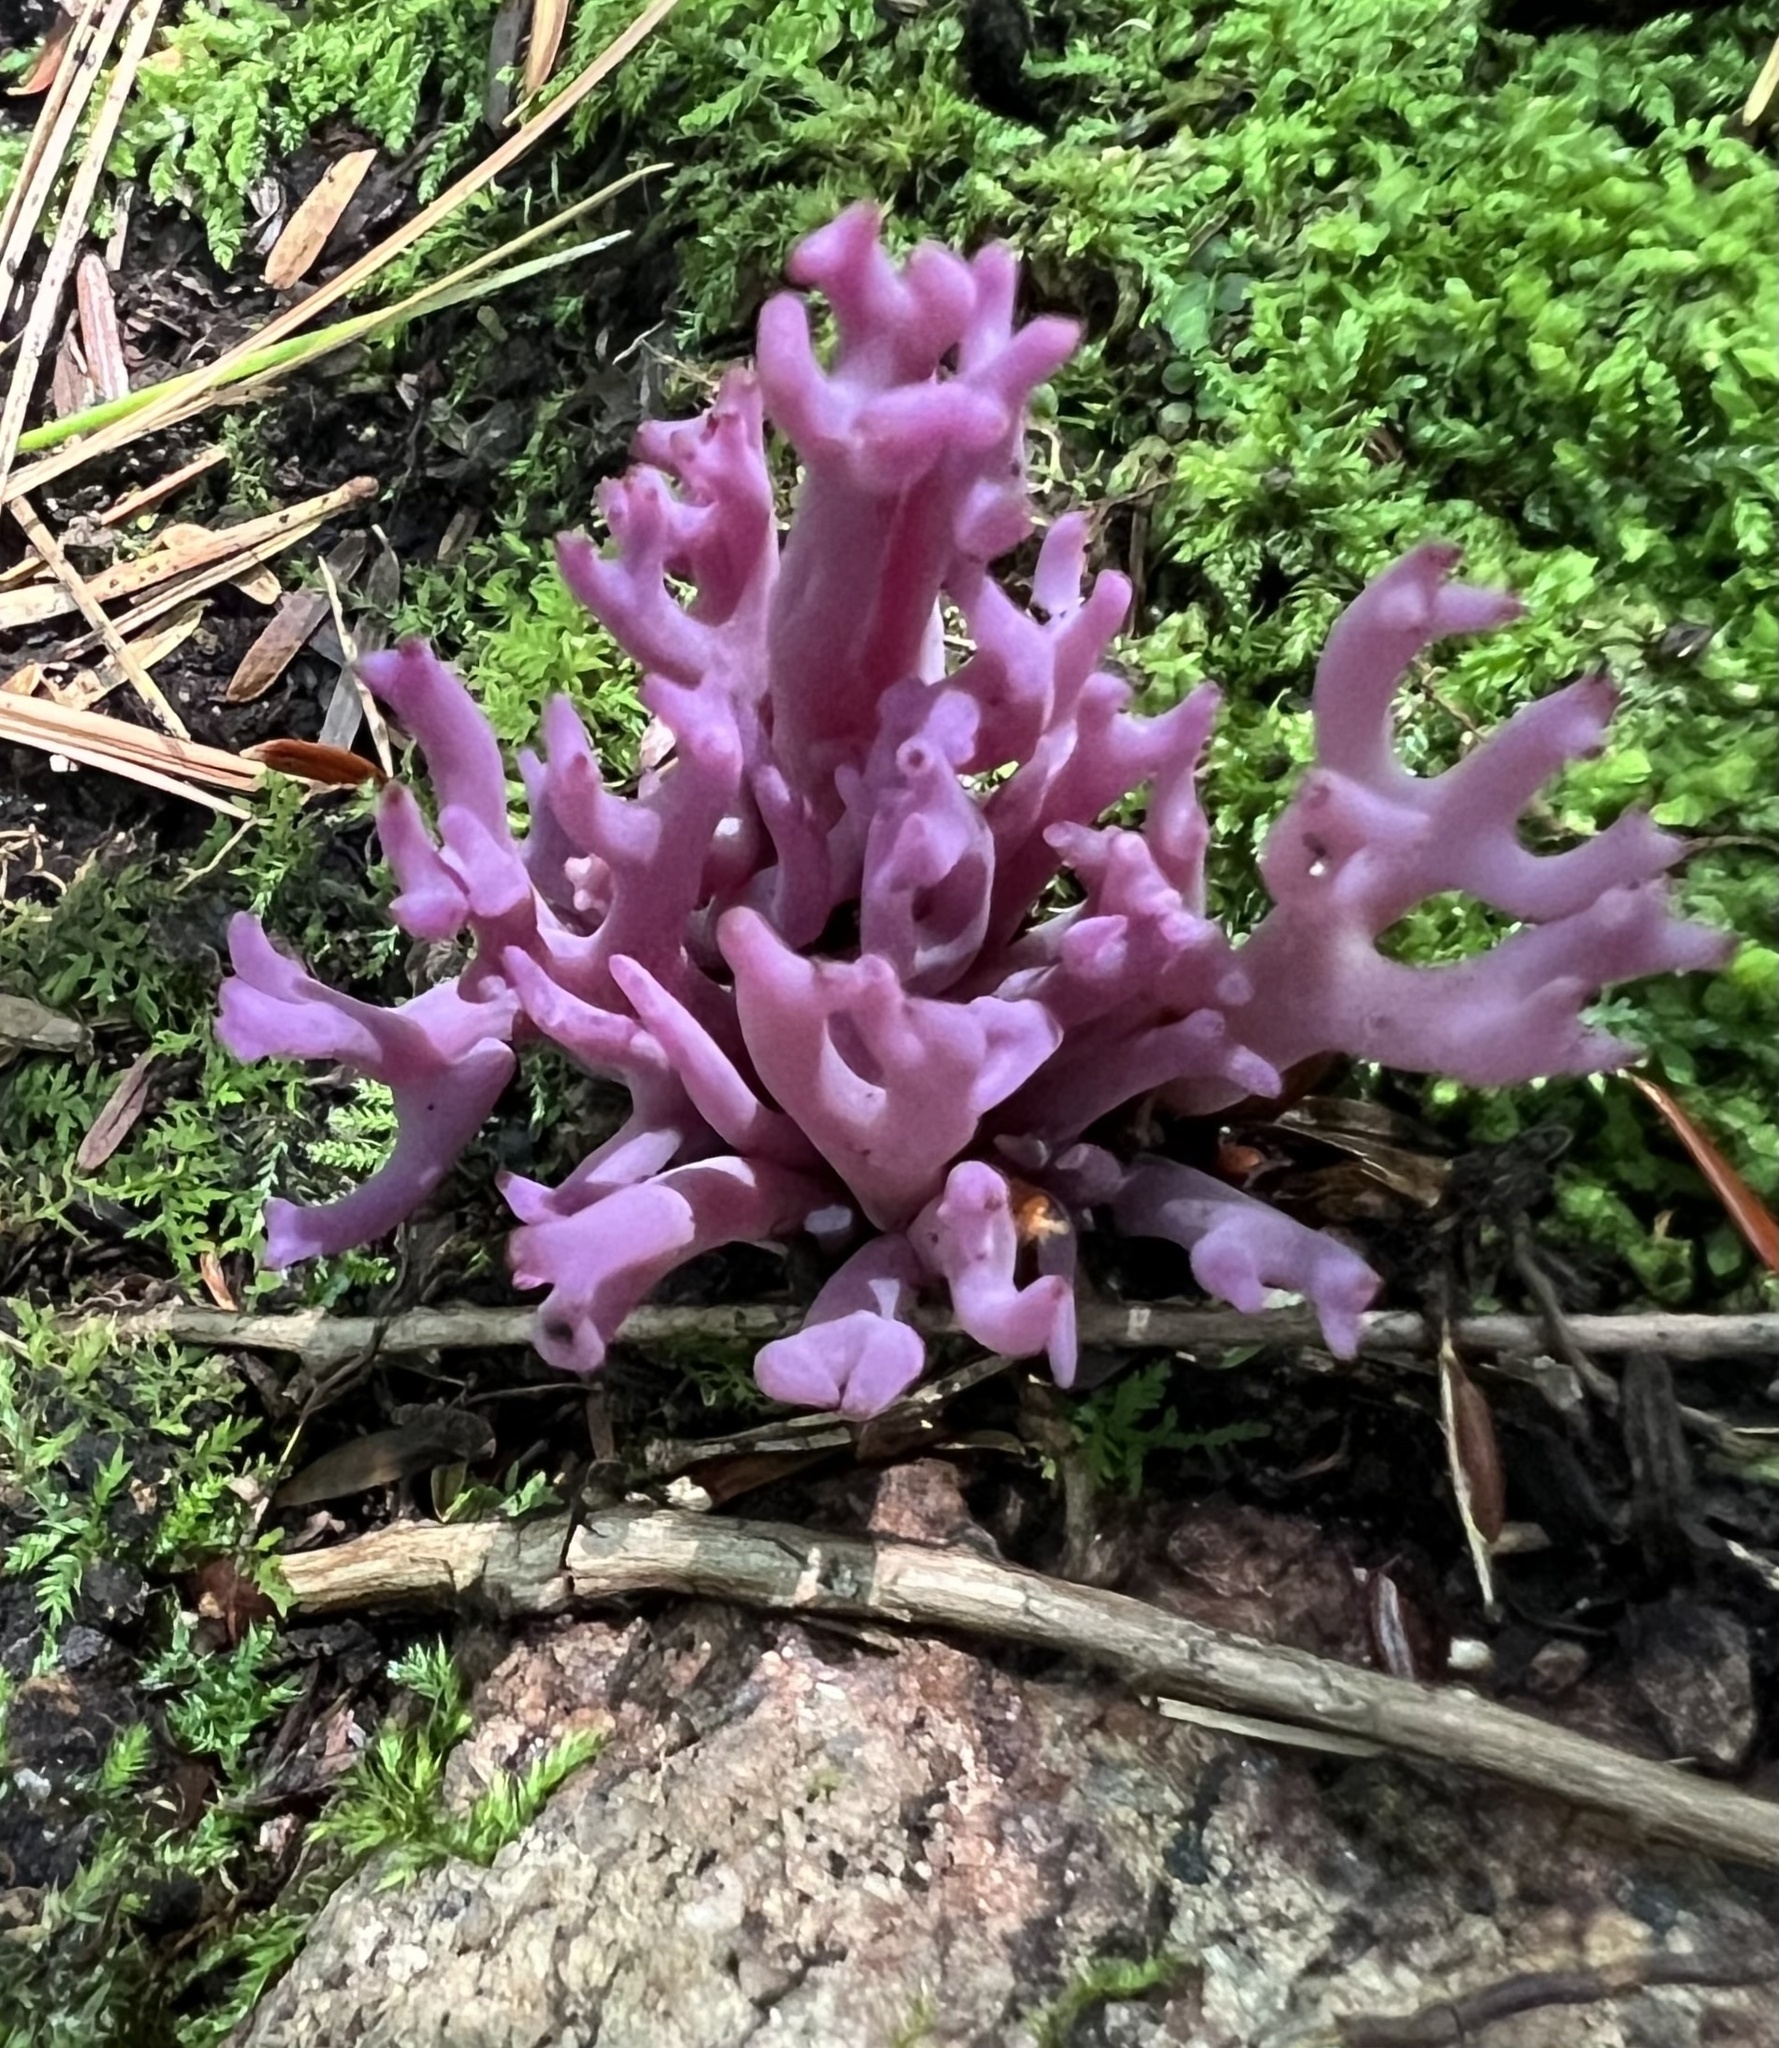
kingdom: Fungi
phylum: Basidiomycota
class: Agaricomycetes
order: Agaricales
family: Clavariaceae
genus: Clavaria
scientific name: Clavaria zollingeri
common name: Violet coral
